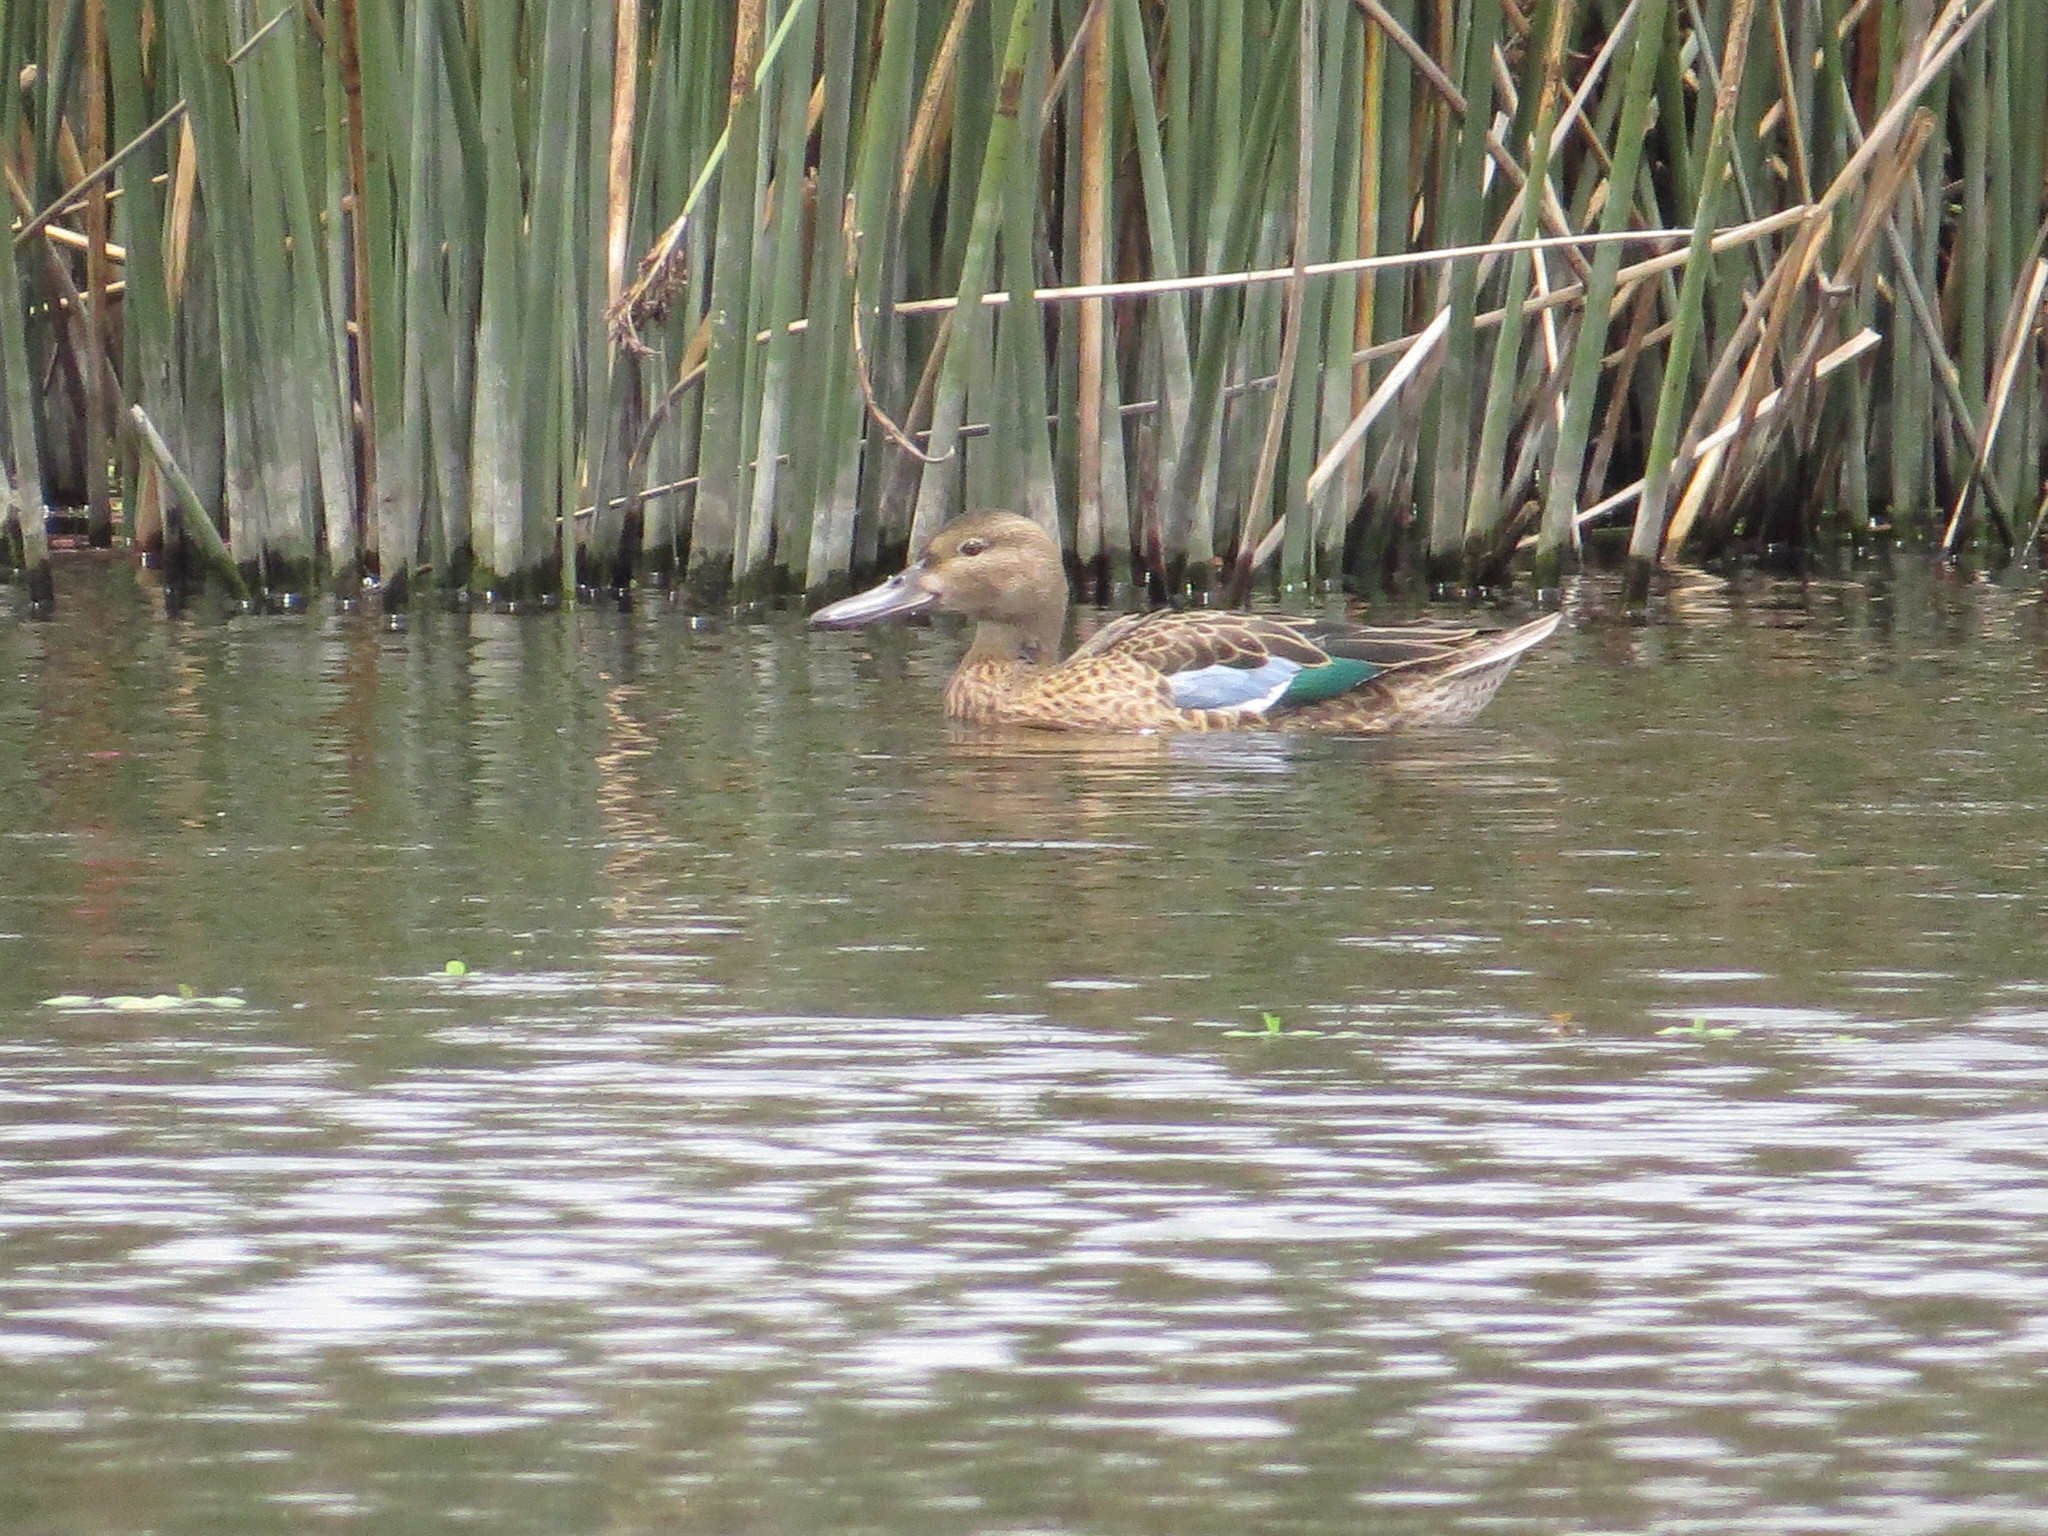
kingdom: Animalia
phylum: Chordata
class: Aves
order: Anseriformes
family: Anatidae
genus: Spatula
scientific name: Spatula cyanoptera
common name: Cinnamon teal
